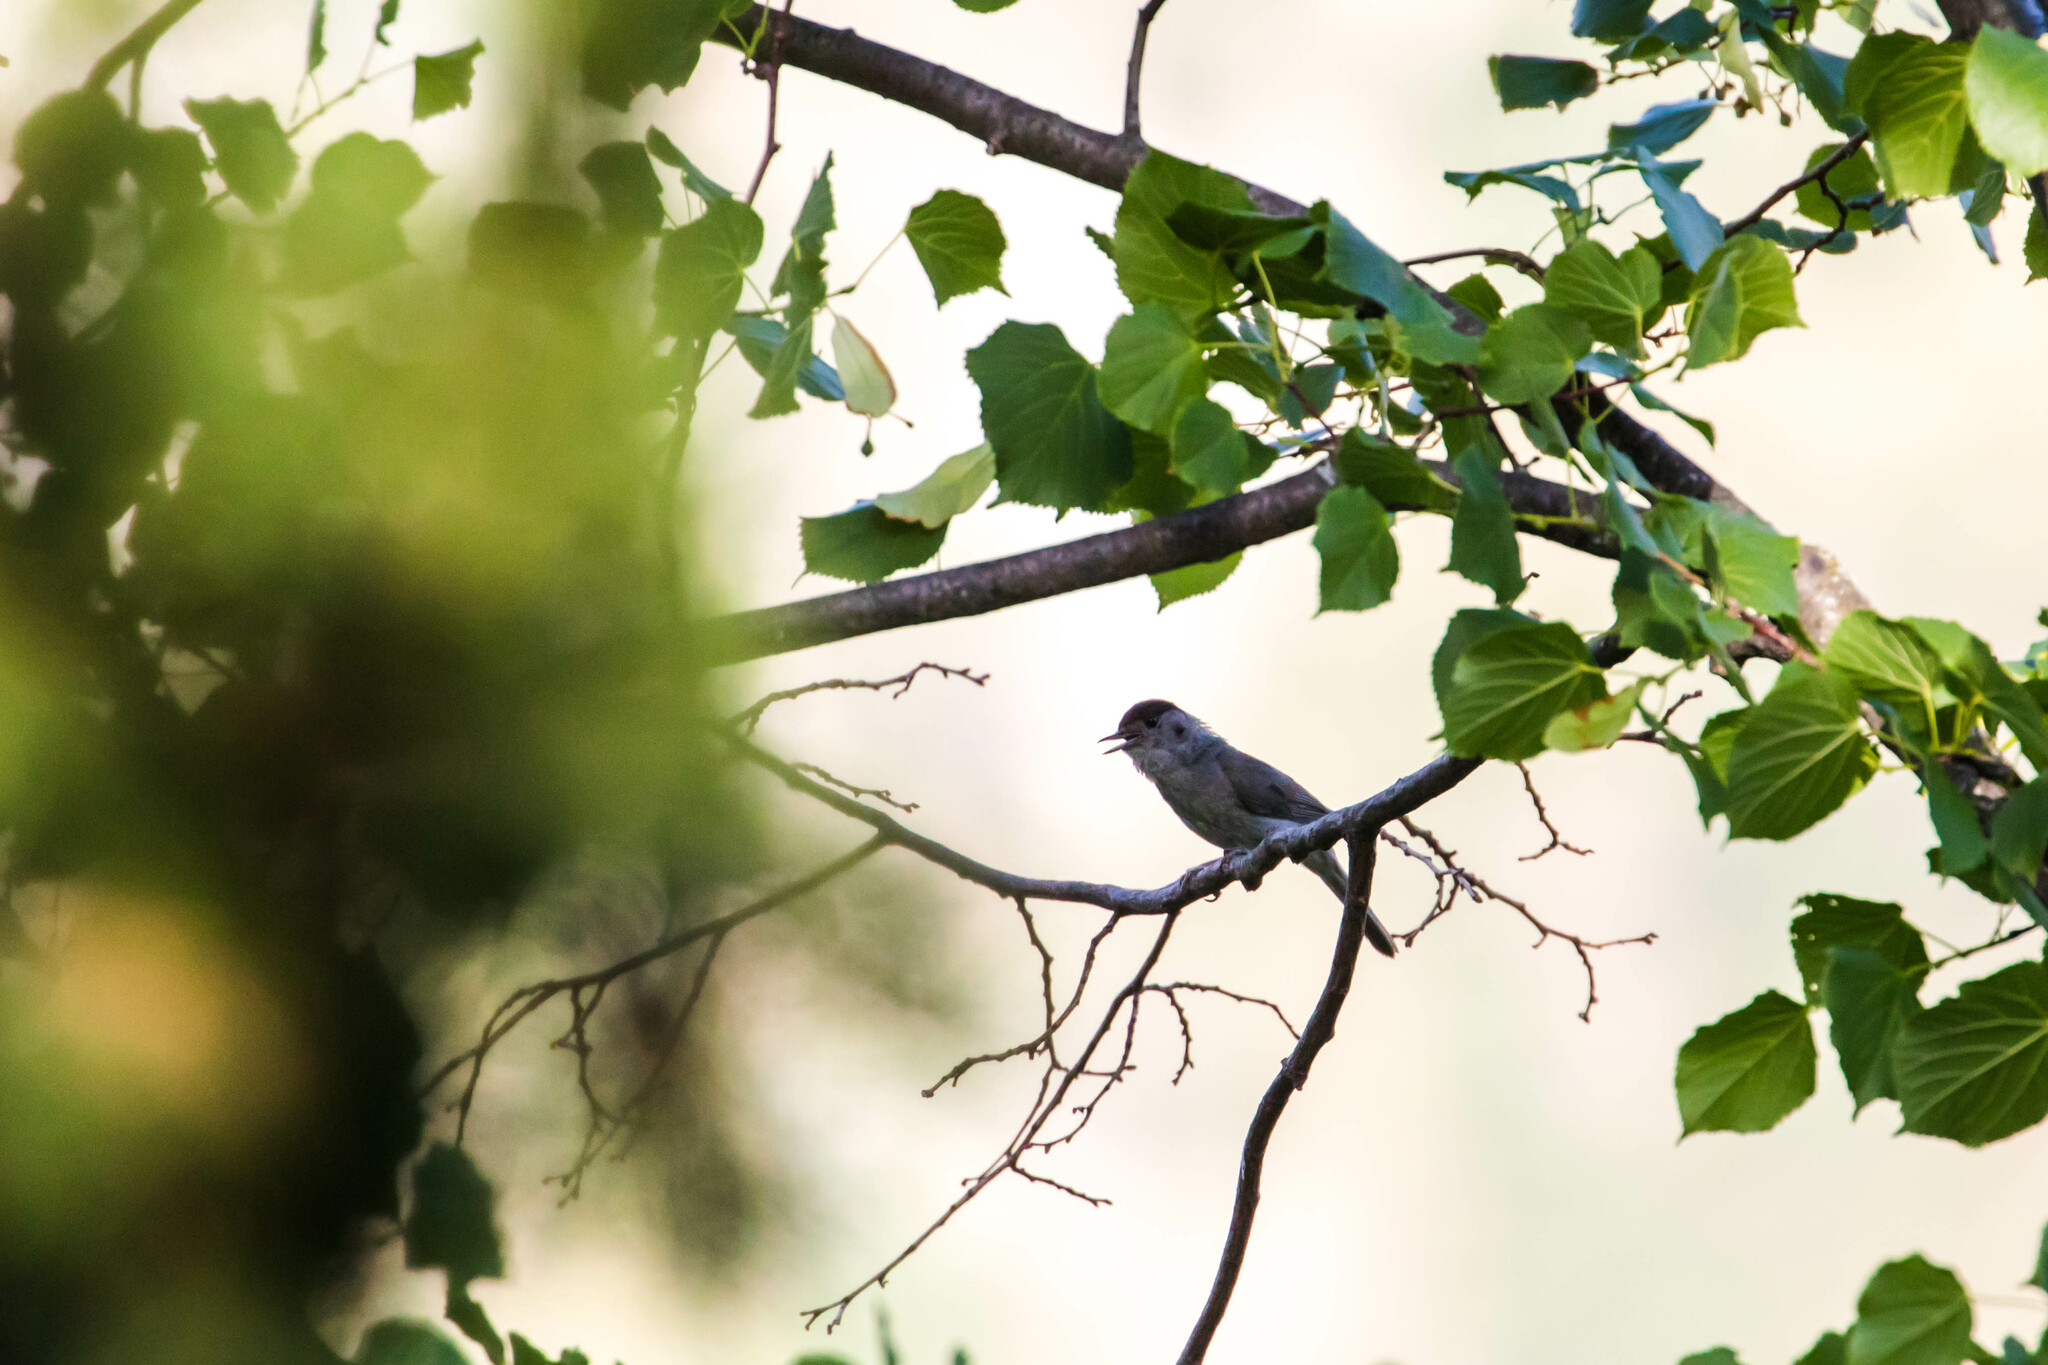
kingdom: Animalia
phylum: Chordata
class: Aves
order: Passeriformes
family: Sylviidae
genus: Sylvia
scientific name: Sylvia atricapilla
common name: Eurasian blackcap
